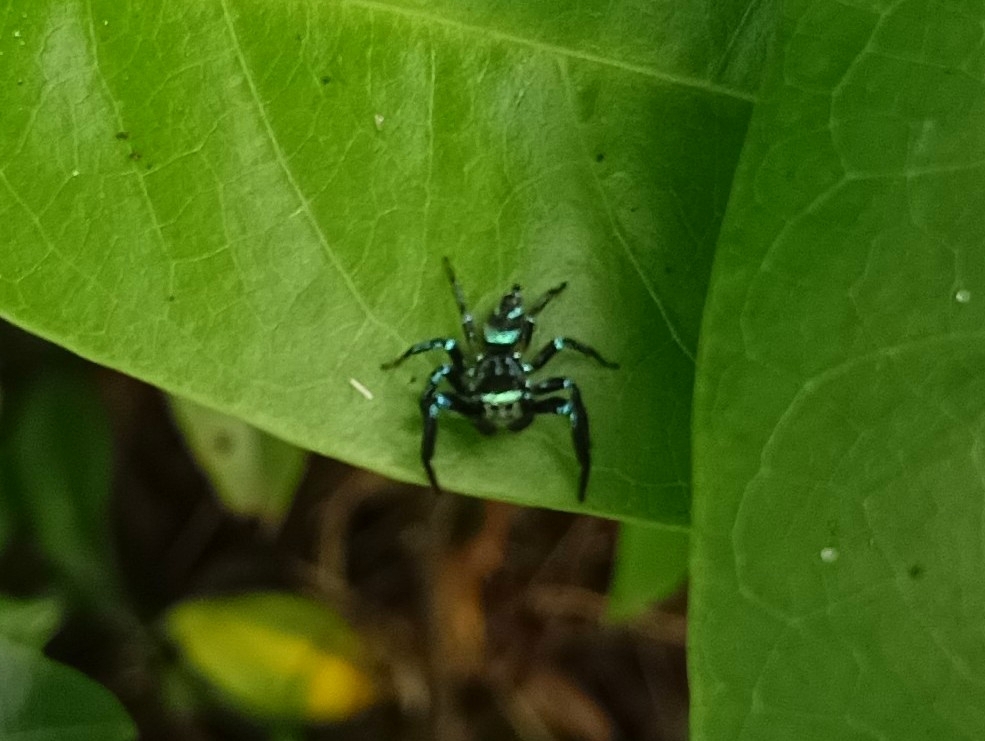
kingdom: Animalia
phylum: Arthropoda
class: Arachnida
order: Araneae
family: Salticidae
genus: Thiania
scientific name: Thiania bhamoensis
